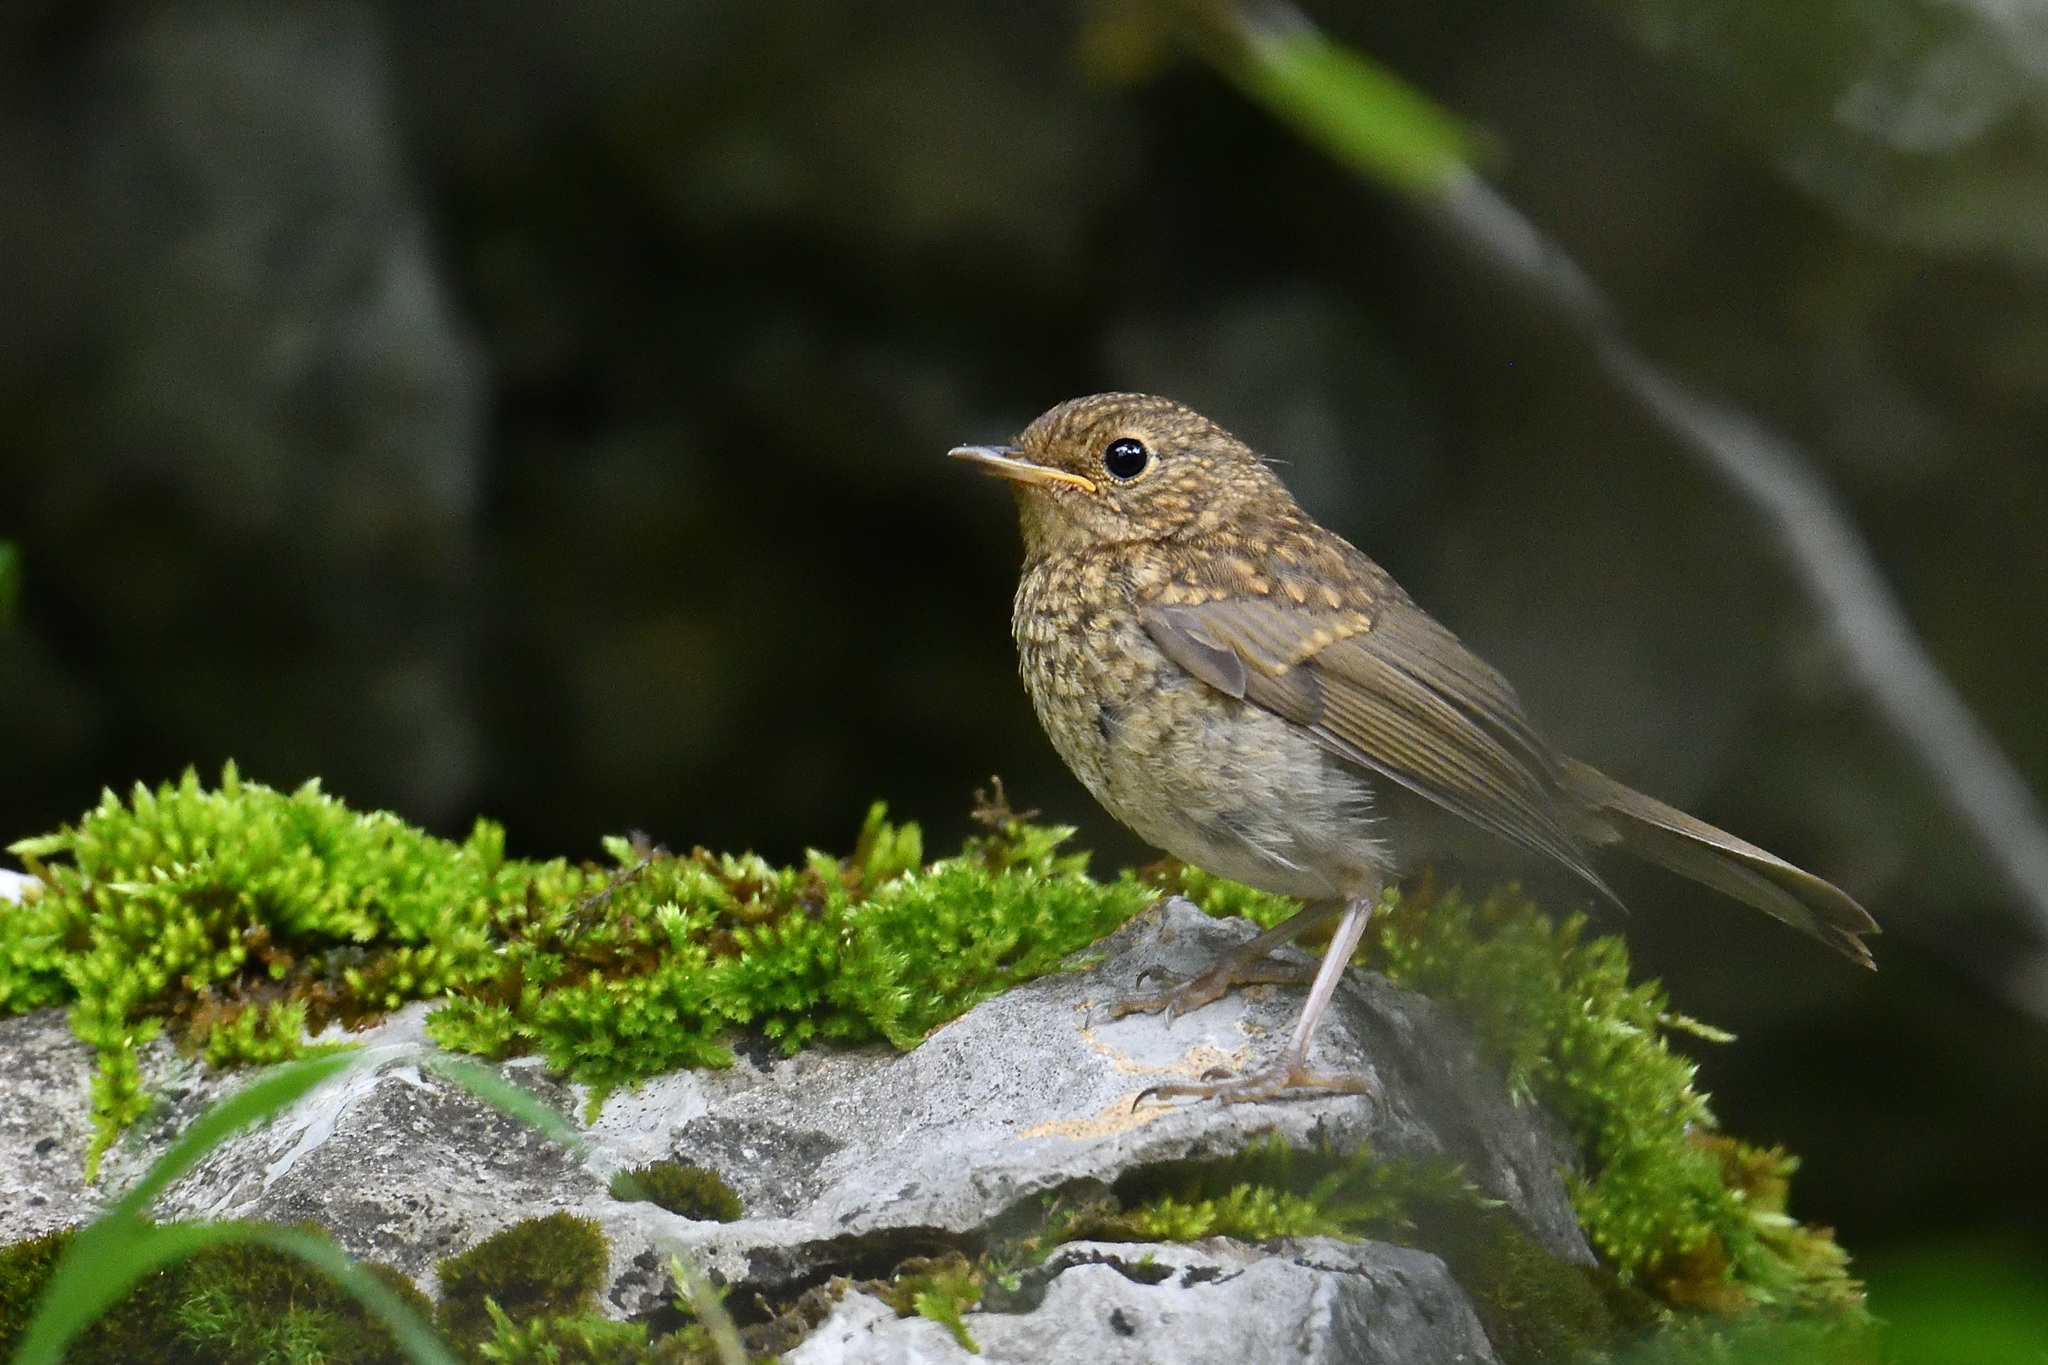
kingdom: Animalia
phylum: Chordata
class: Aves
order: Passeriformes
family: Muscicapidae
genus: Erithacus
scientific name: Erithacus rubecula
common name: European robin
